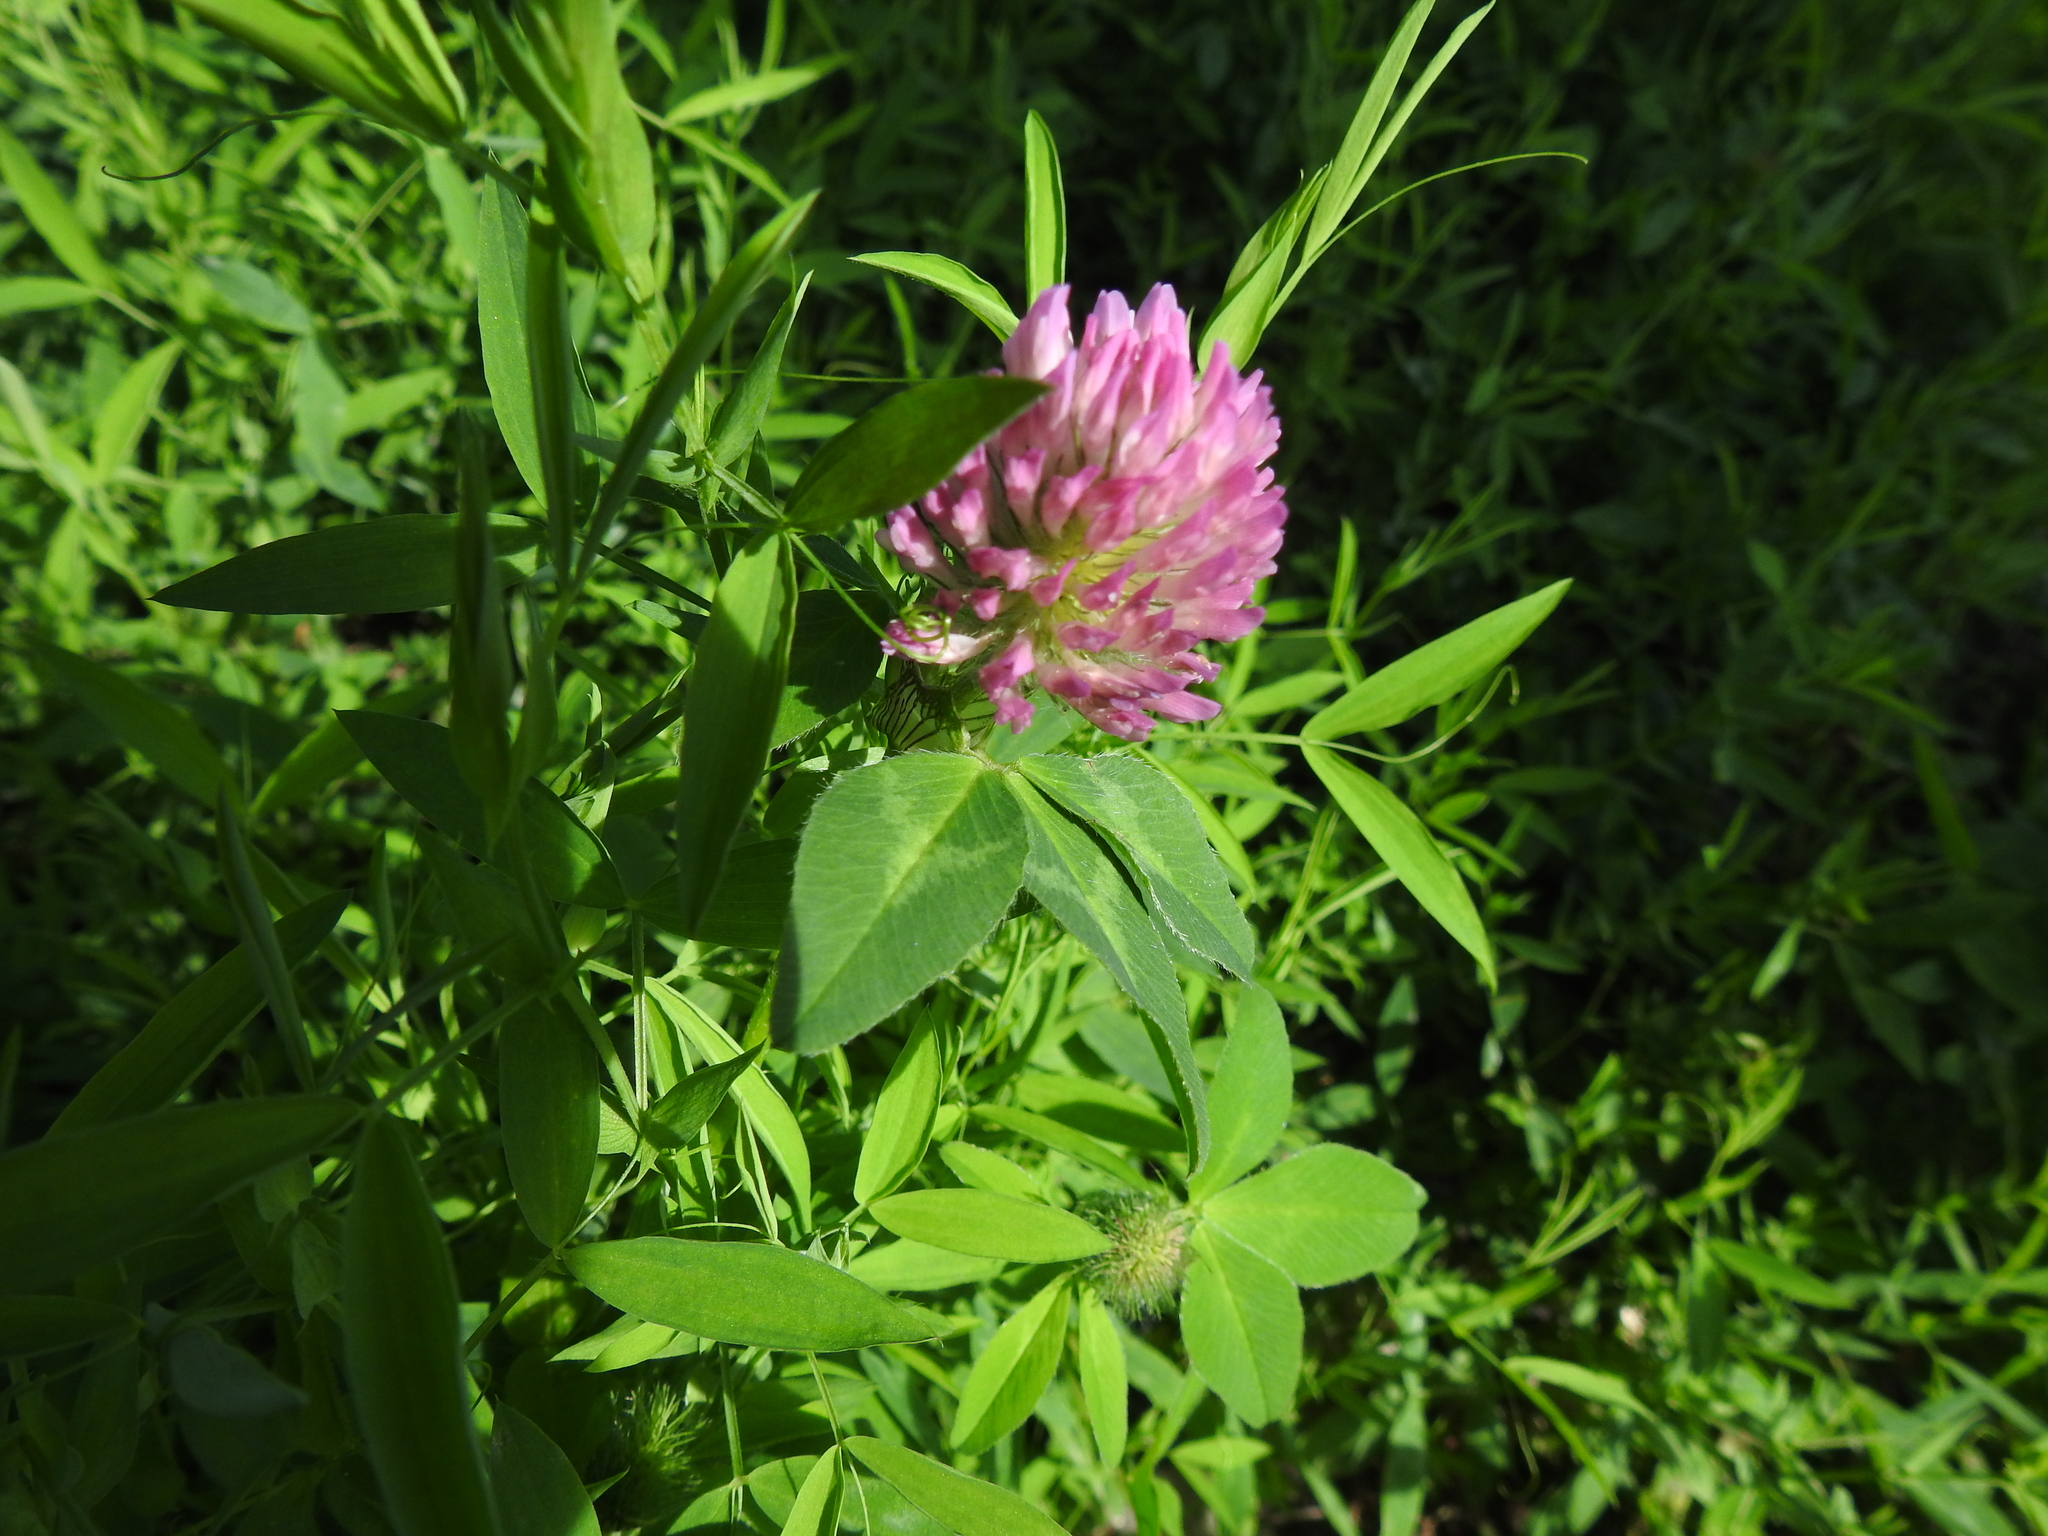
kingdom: Plantae
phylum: Tracheophyta
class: Magnoliopsida
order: Fabales
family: Fabaceae
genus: Trifolium
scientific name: Trifolium pratense
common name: Red clover
